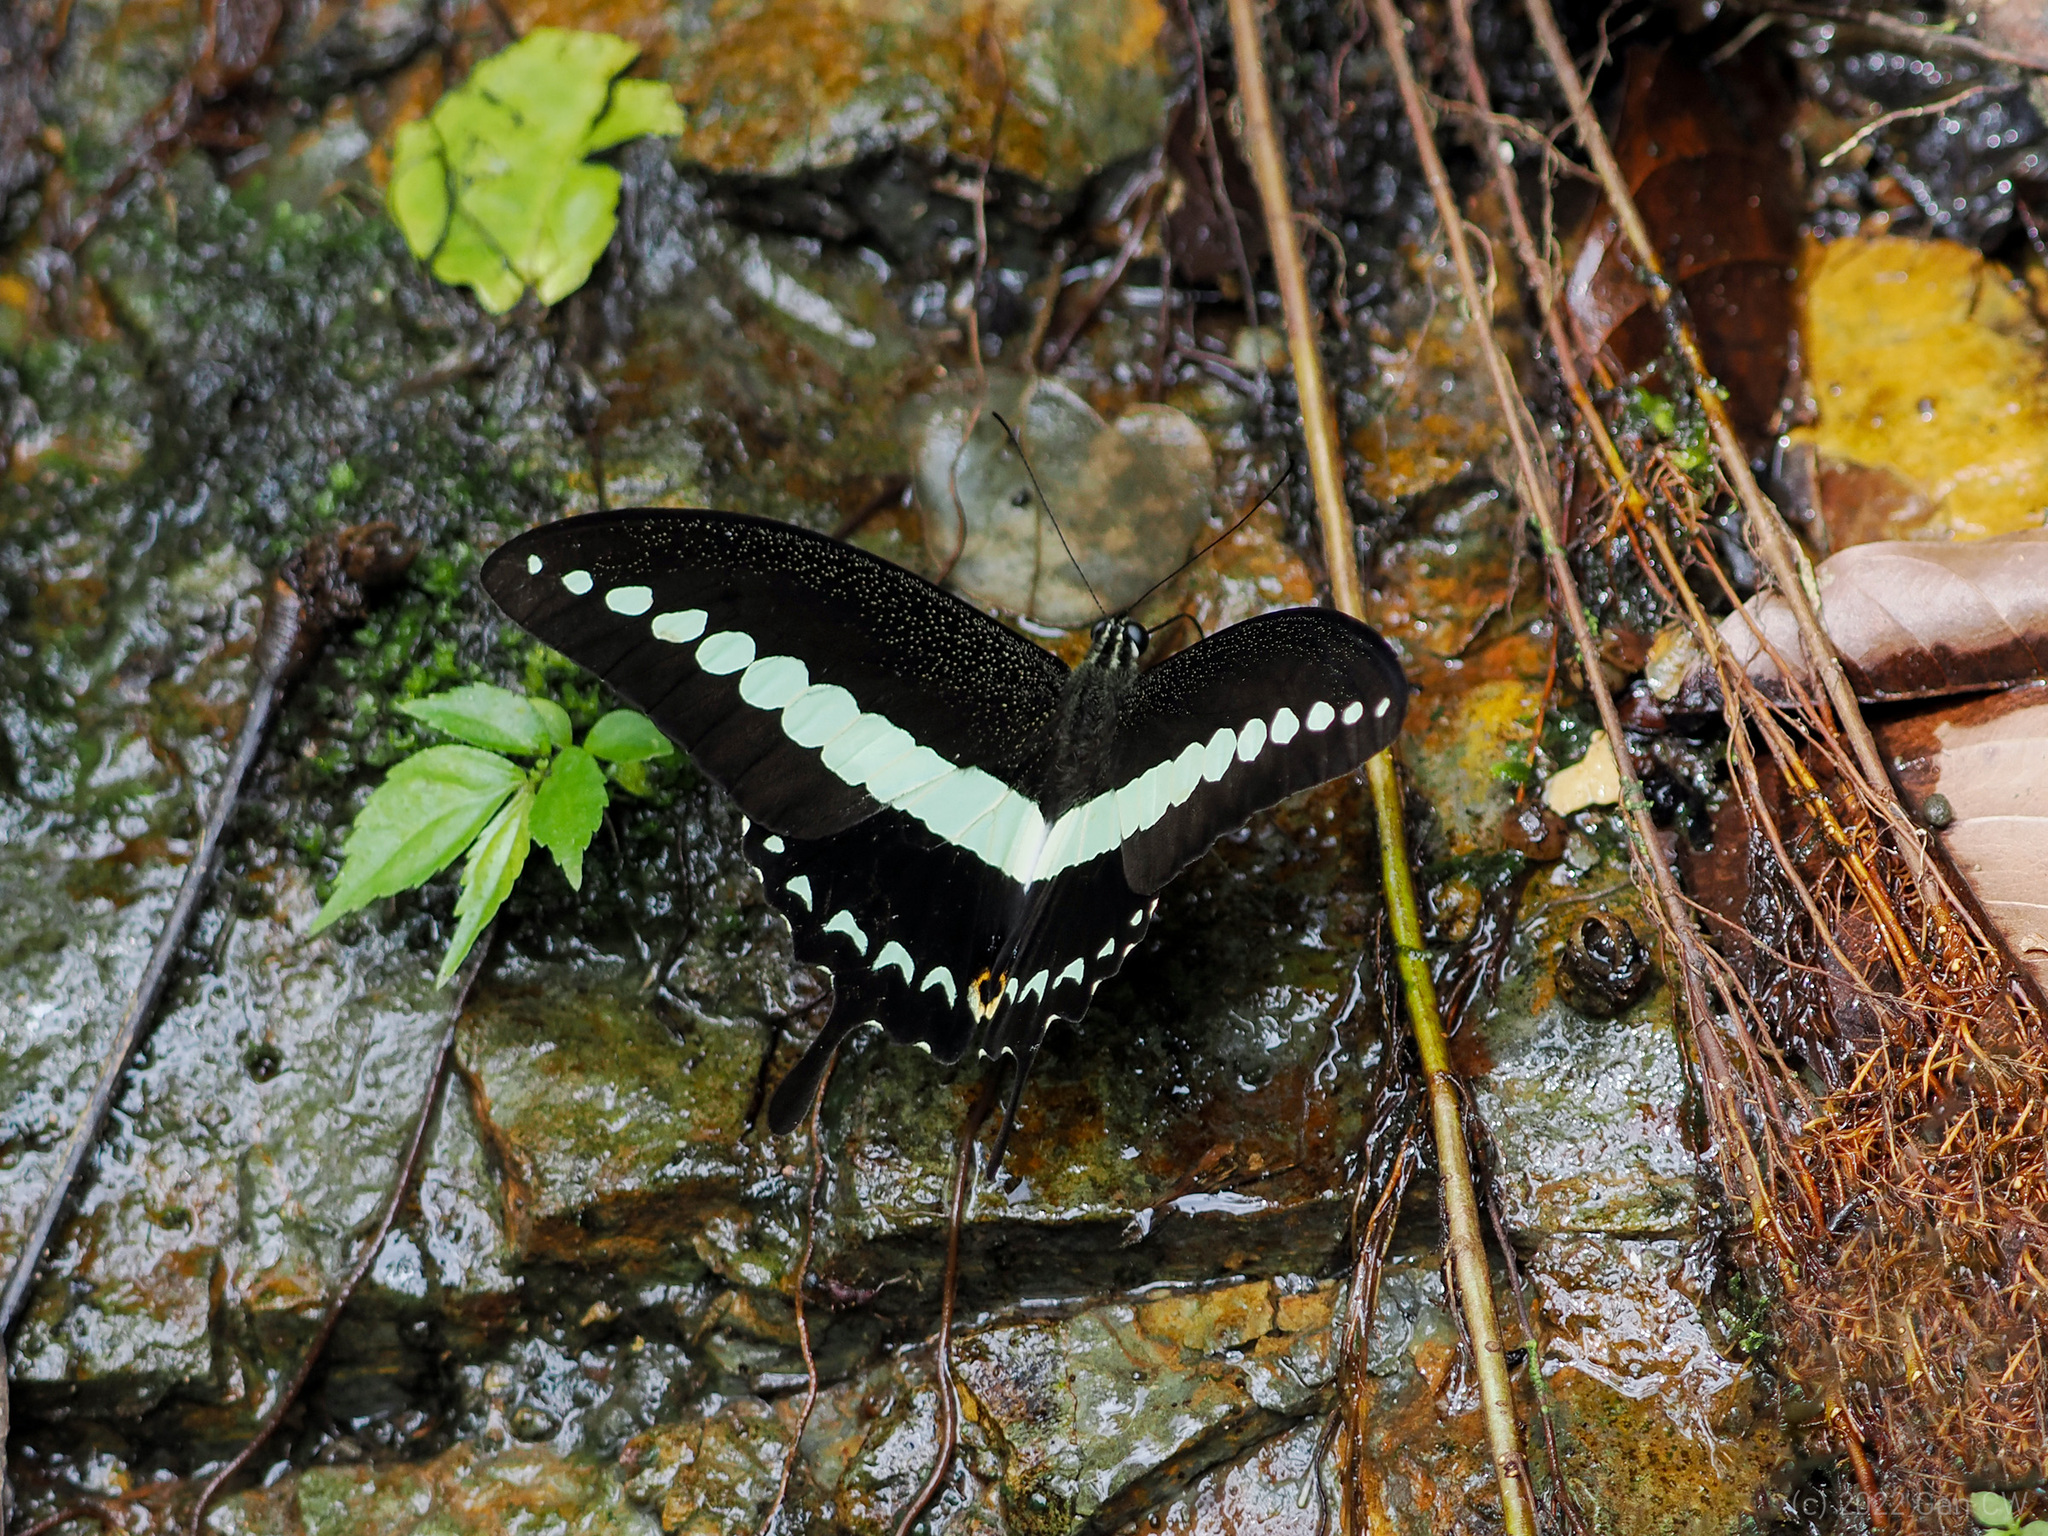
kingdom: Animalia
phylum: Arthropoda
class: Insecta
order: Lepidoptera
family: Papilionidae
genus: Papilio
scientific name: Papilio demolion
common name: Banded swallowtail
